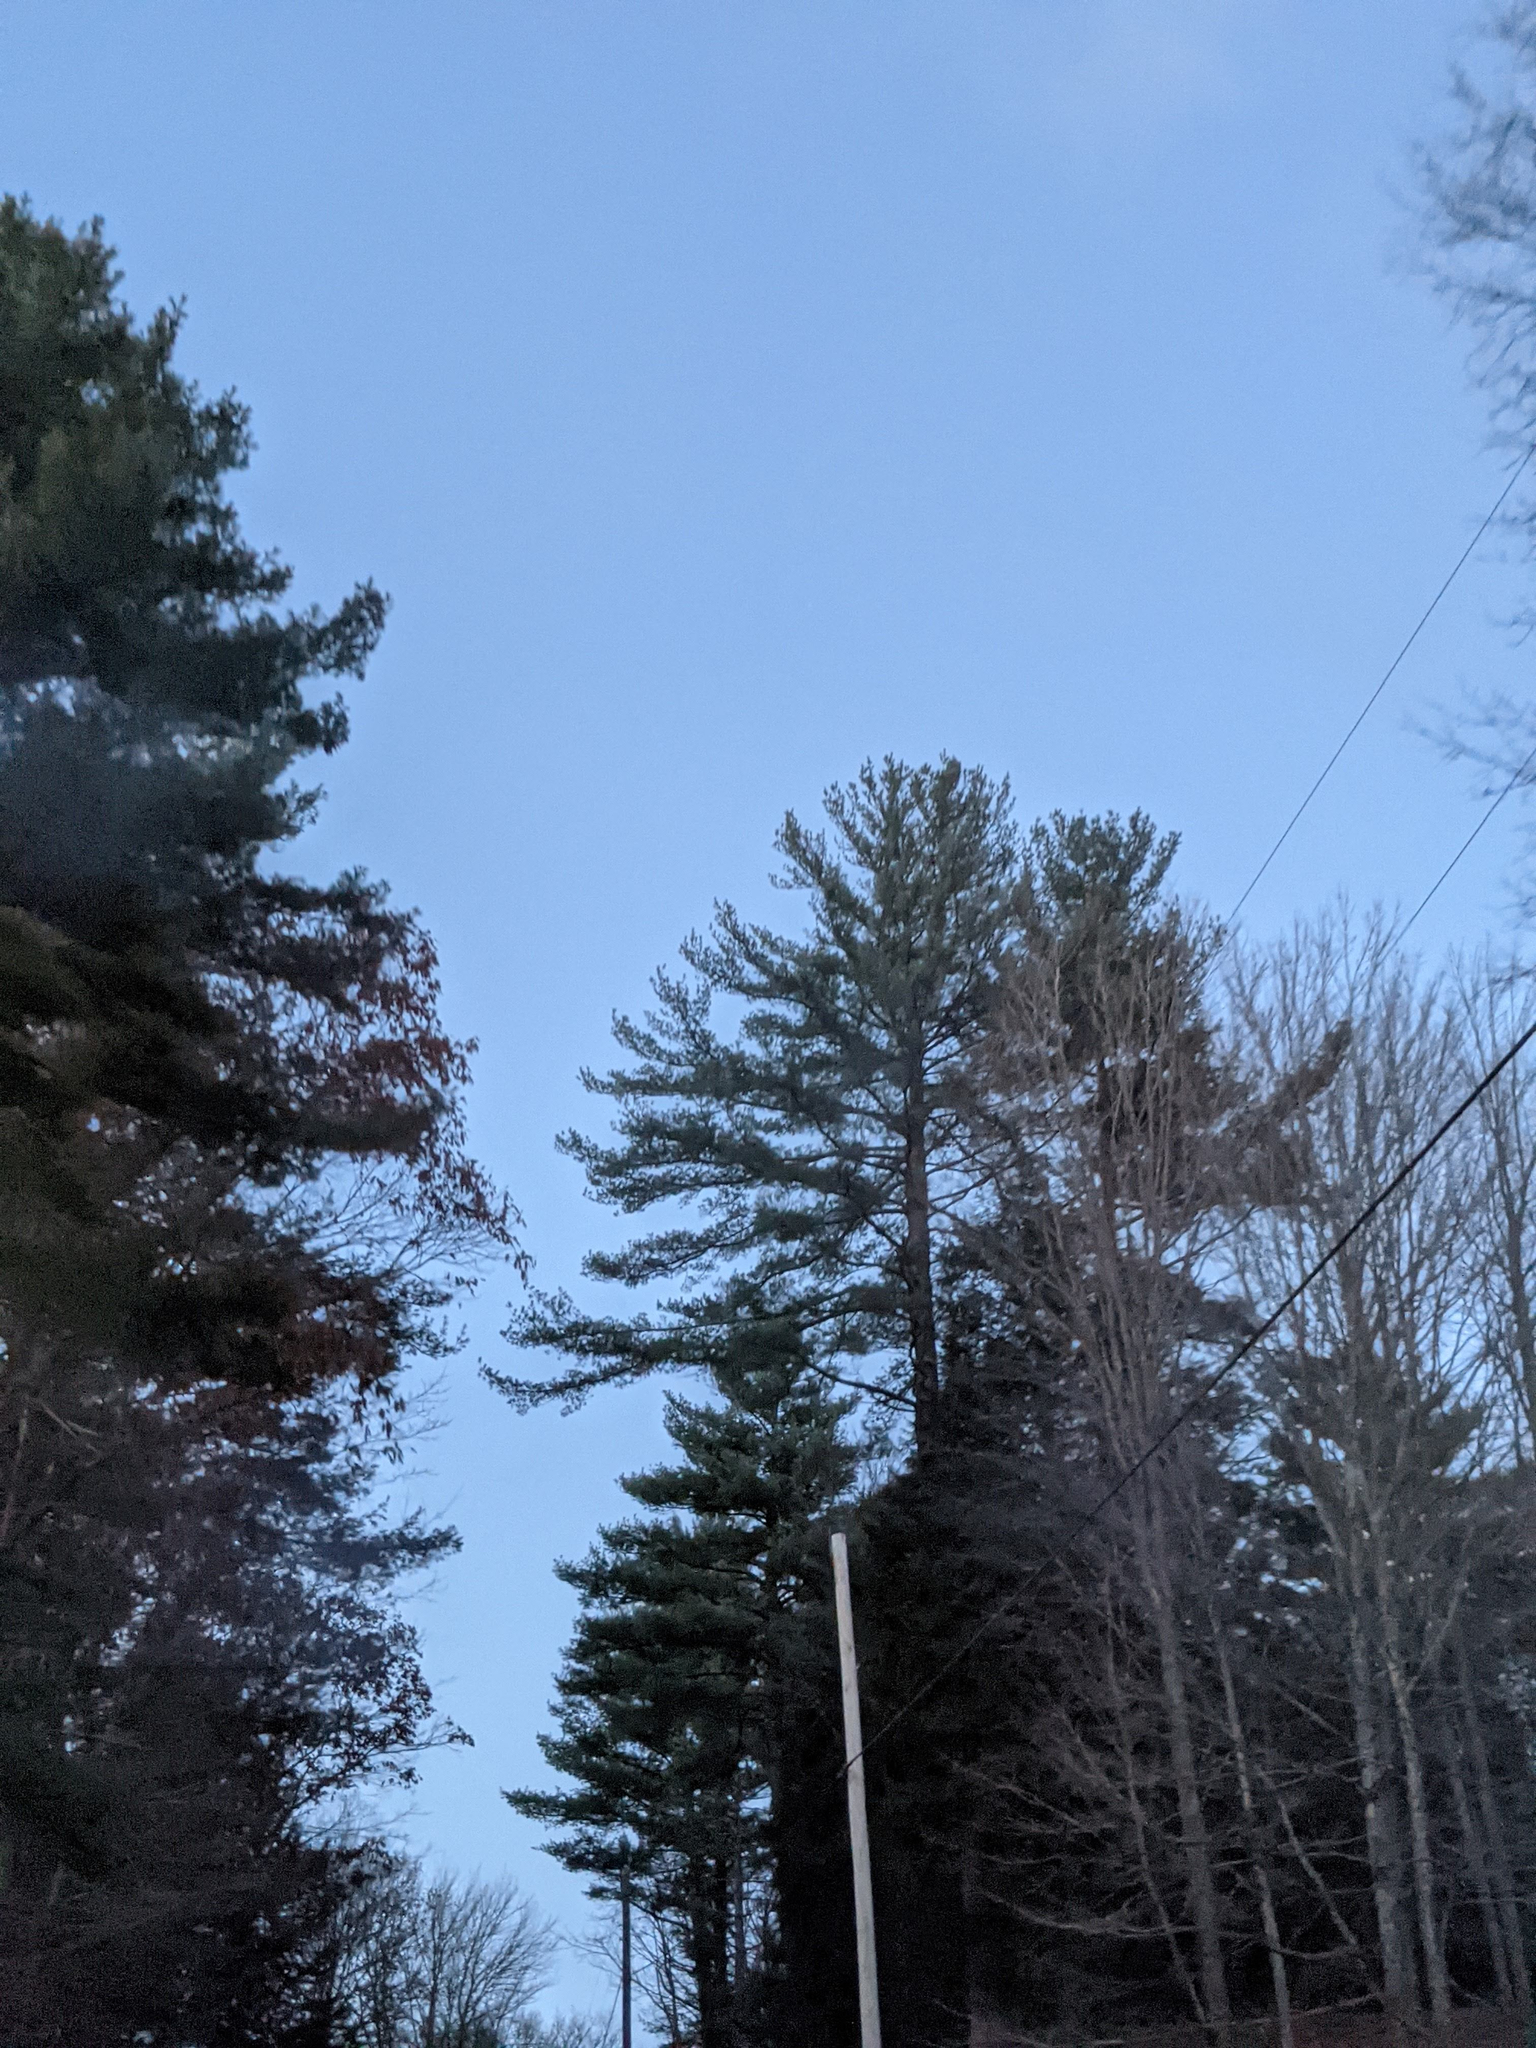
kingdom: Plantae
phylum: Tracheophyta
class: Pinopsida
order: Pinales
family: Pinaceae
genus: Pinus
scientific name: Pinus strobus
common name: Weymouth pine
